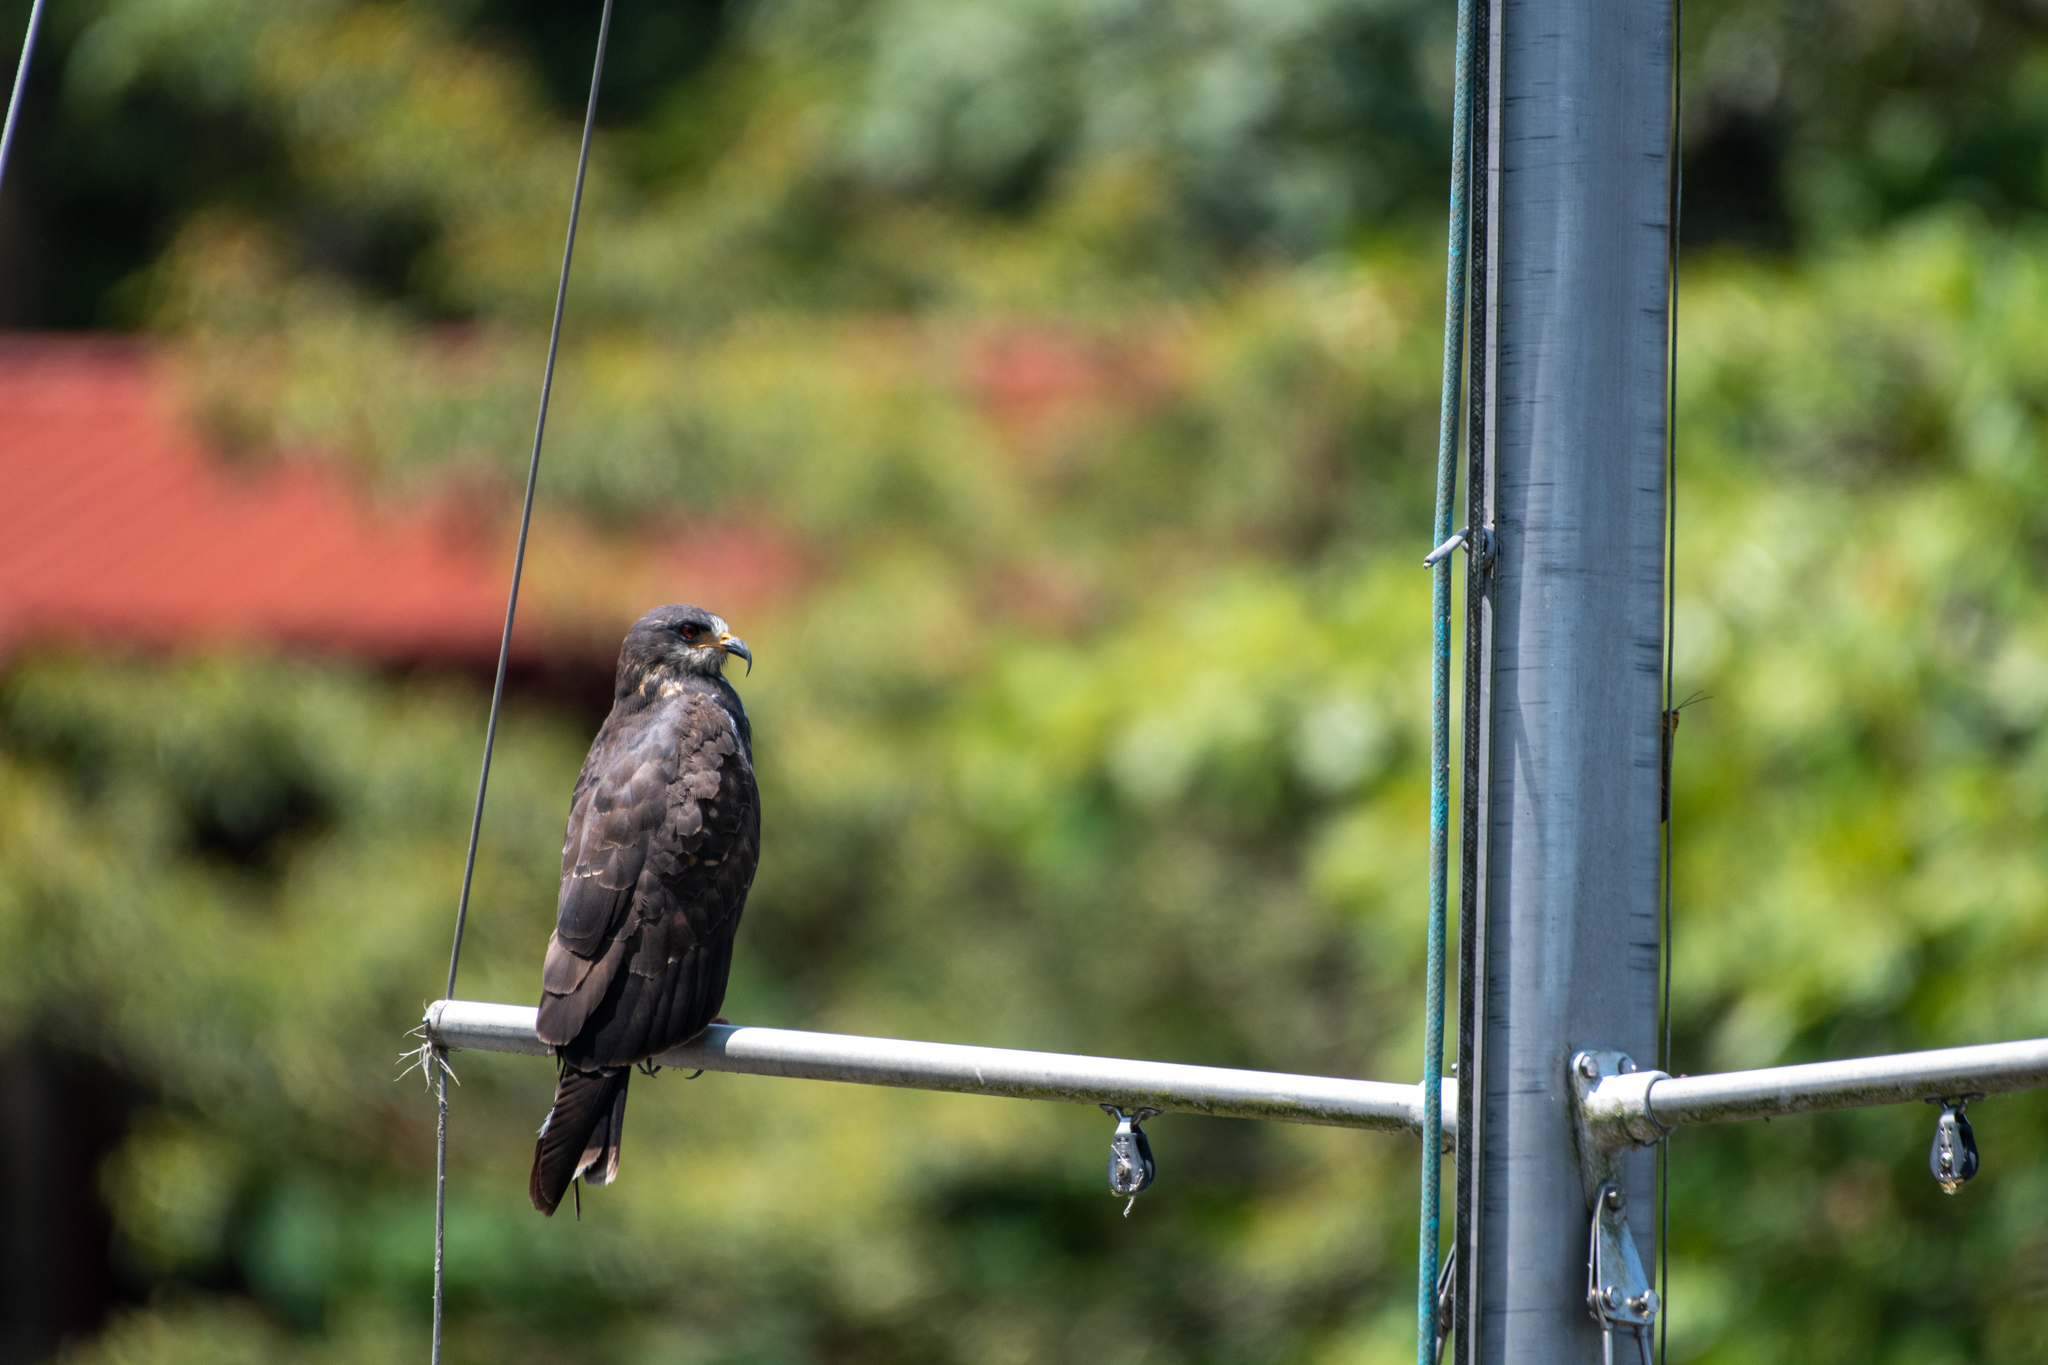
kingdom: Animalia
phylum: Chordata
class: Aves
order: Accipitriformes
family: Accipitridae
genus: Rostrhamus
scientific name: Rostrhamus sociabilis
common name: Snail kite
